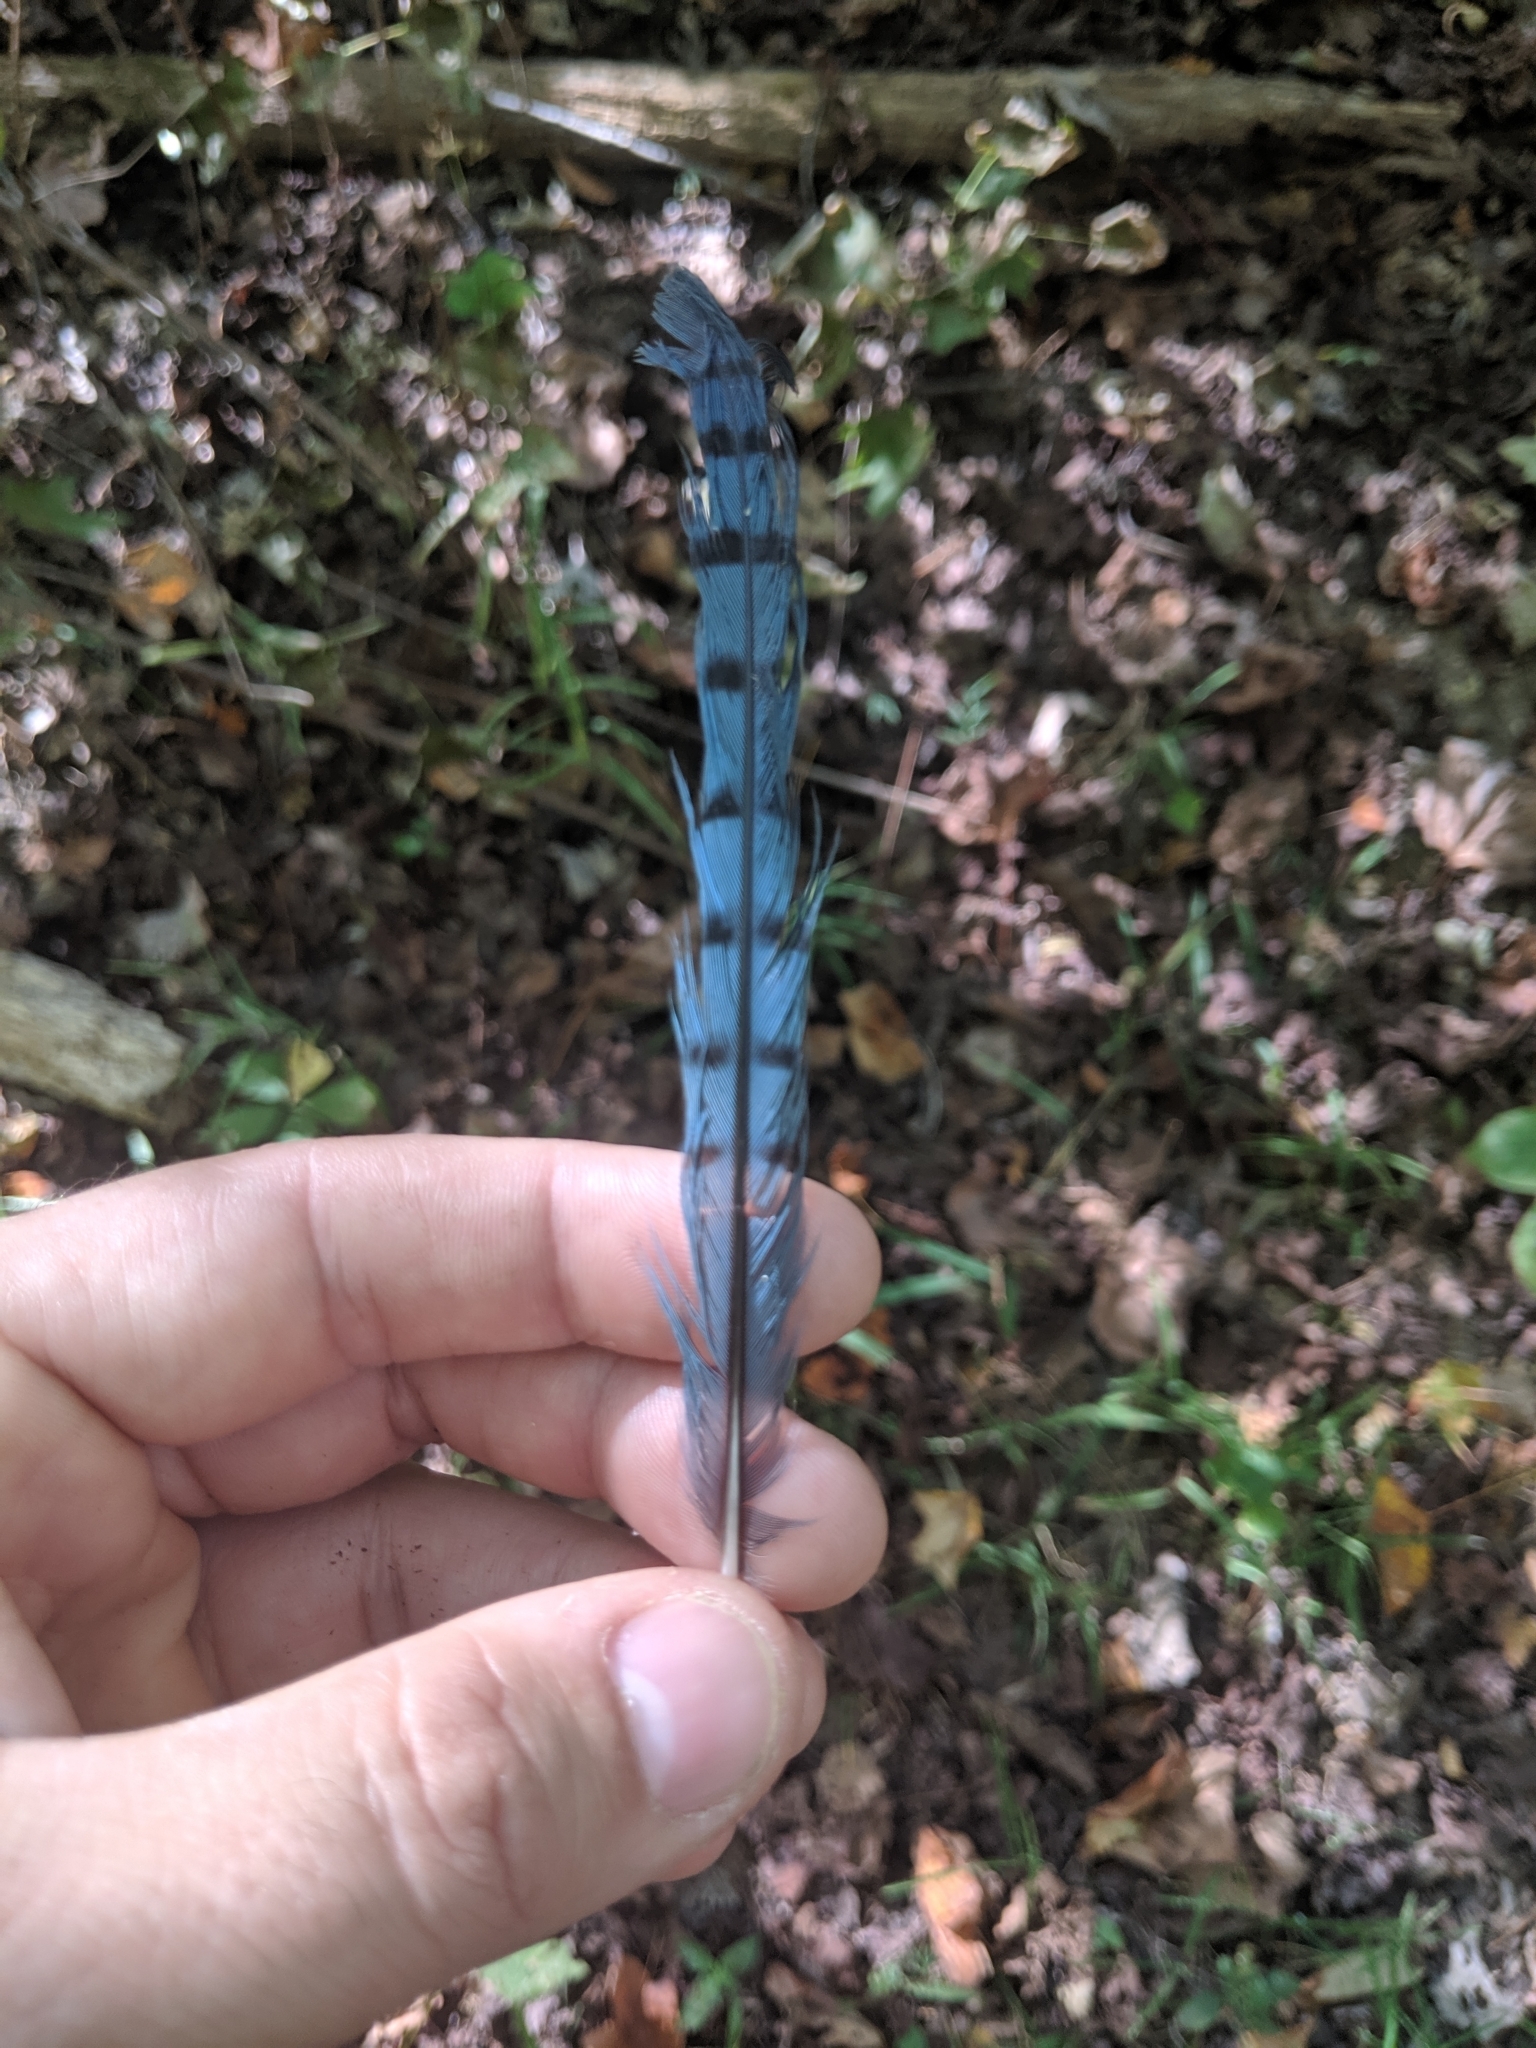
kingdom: Animalia
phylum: Chordata
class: Aves
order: Passeriformes
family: Corvidae
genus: Cyanocitta
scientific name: Cyanocitta cristata
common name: Blue jay
